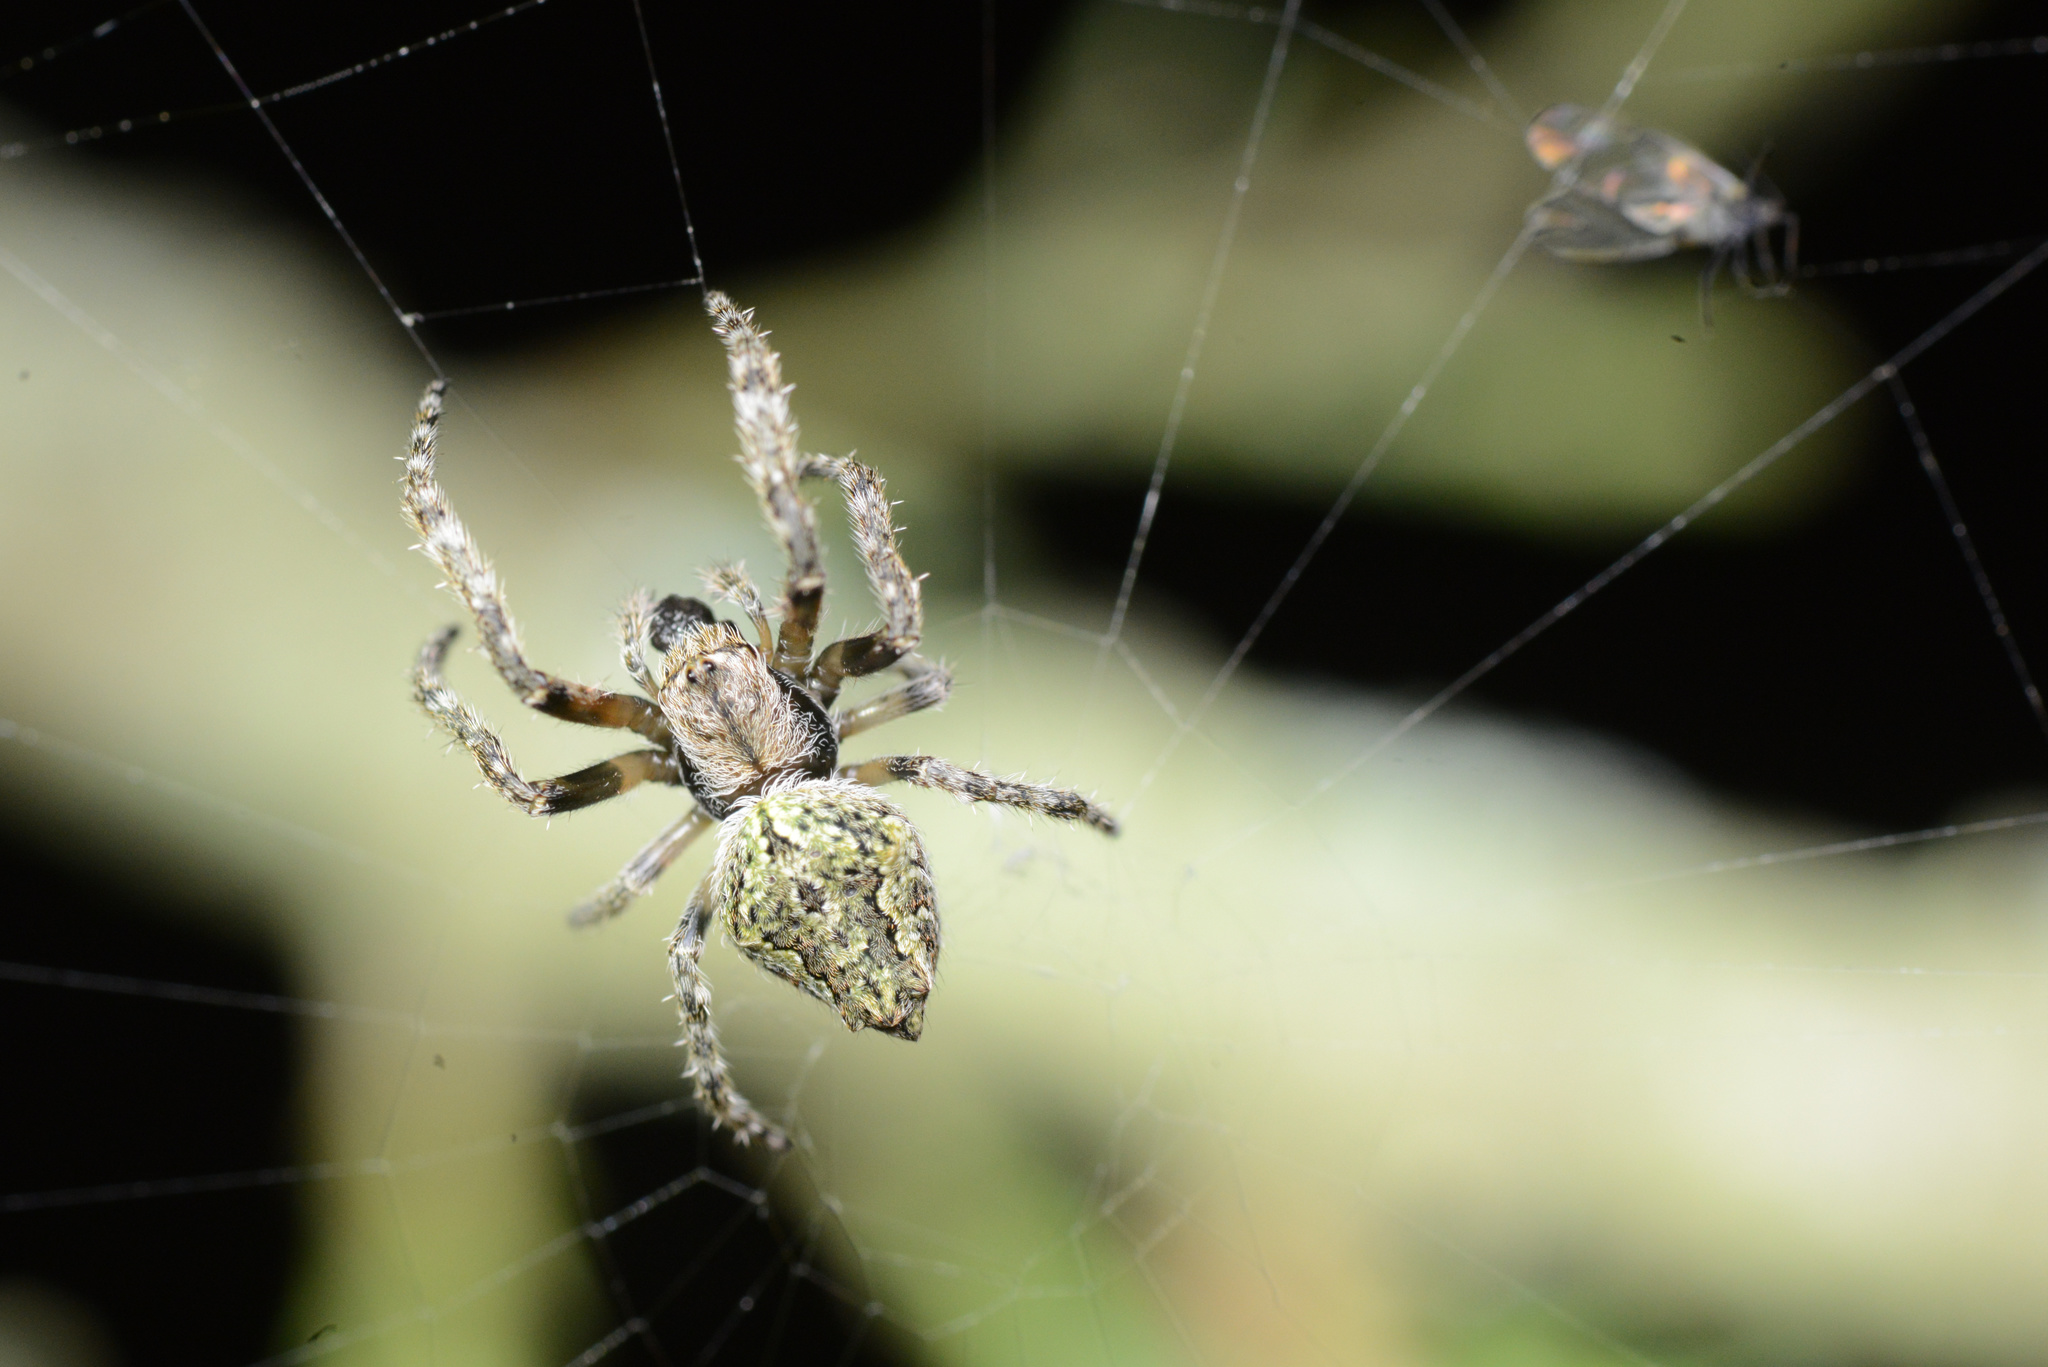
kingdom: Animalia
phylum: Arthropoda
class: Arachnida
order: Araneae
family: Araneidae
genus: Eriophora
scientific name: Eriophora pustulosa
